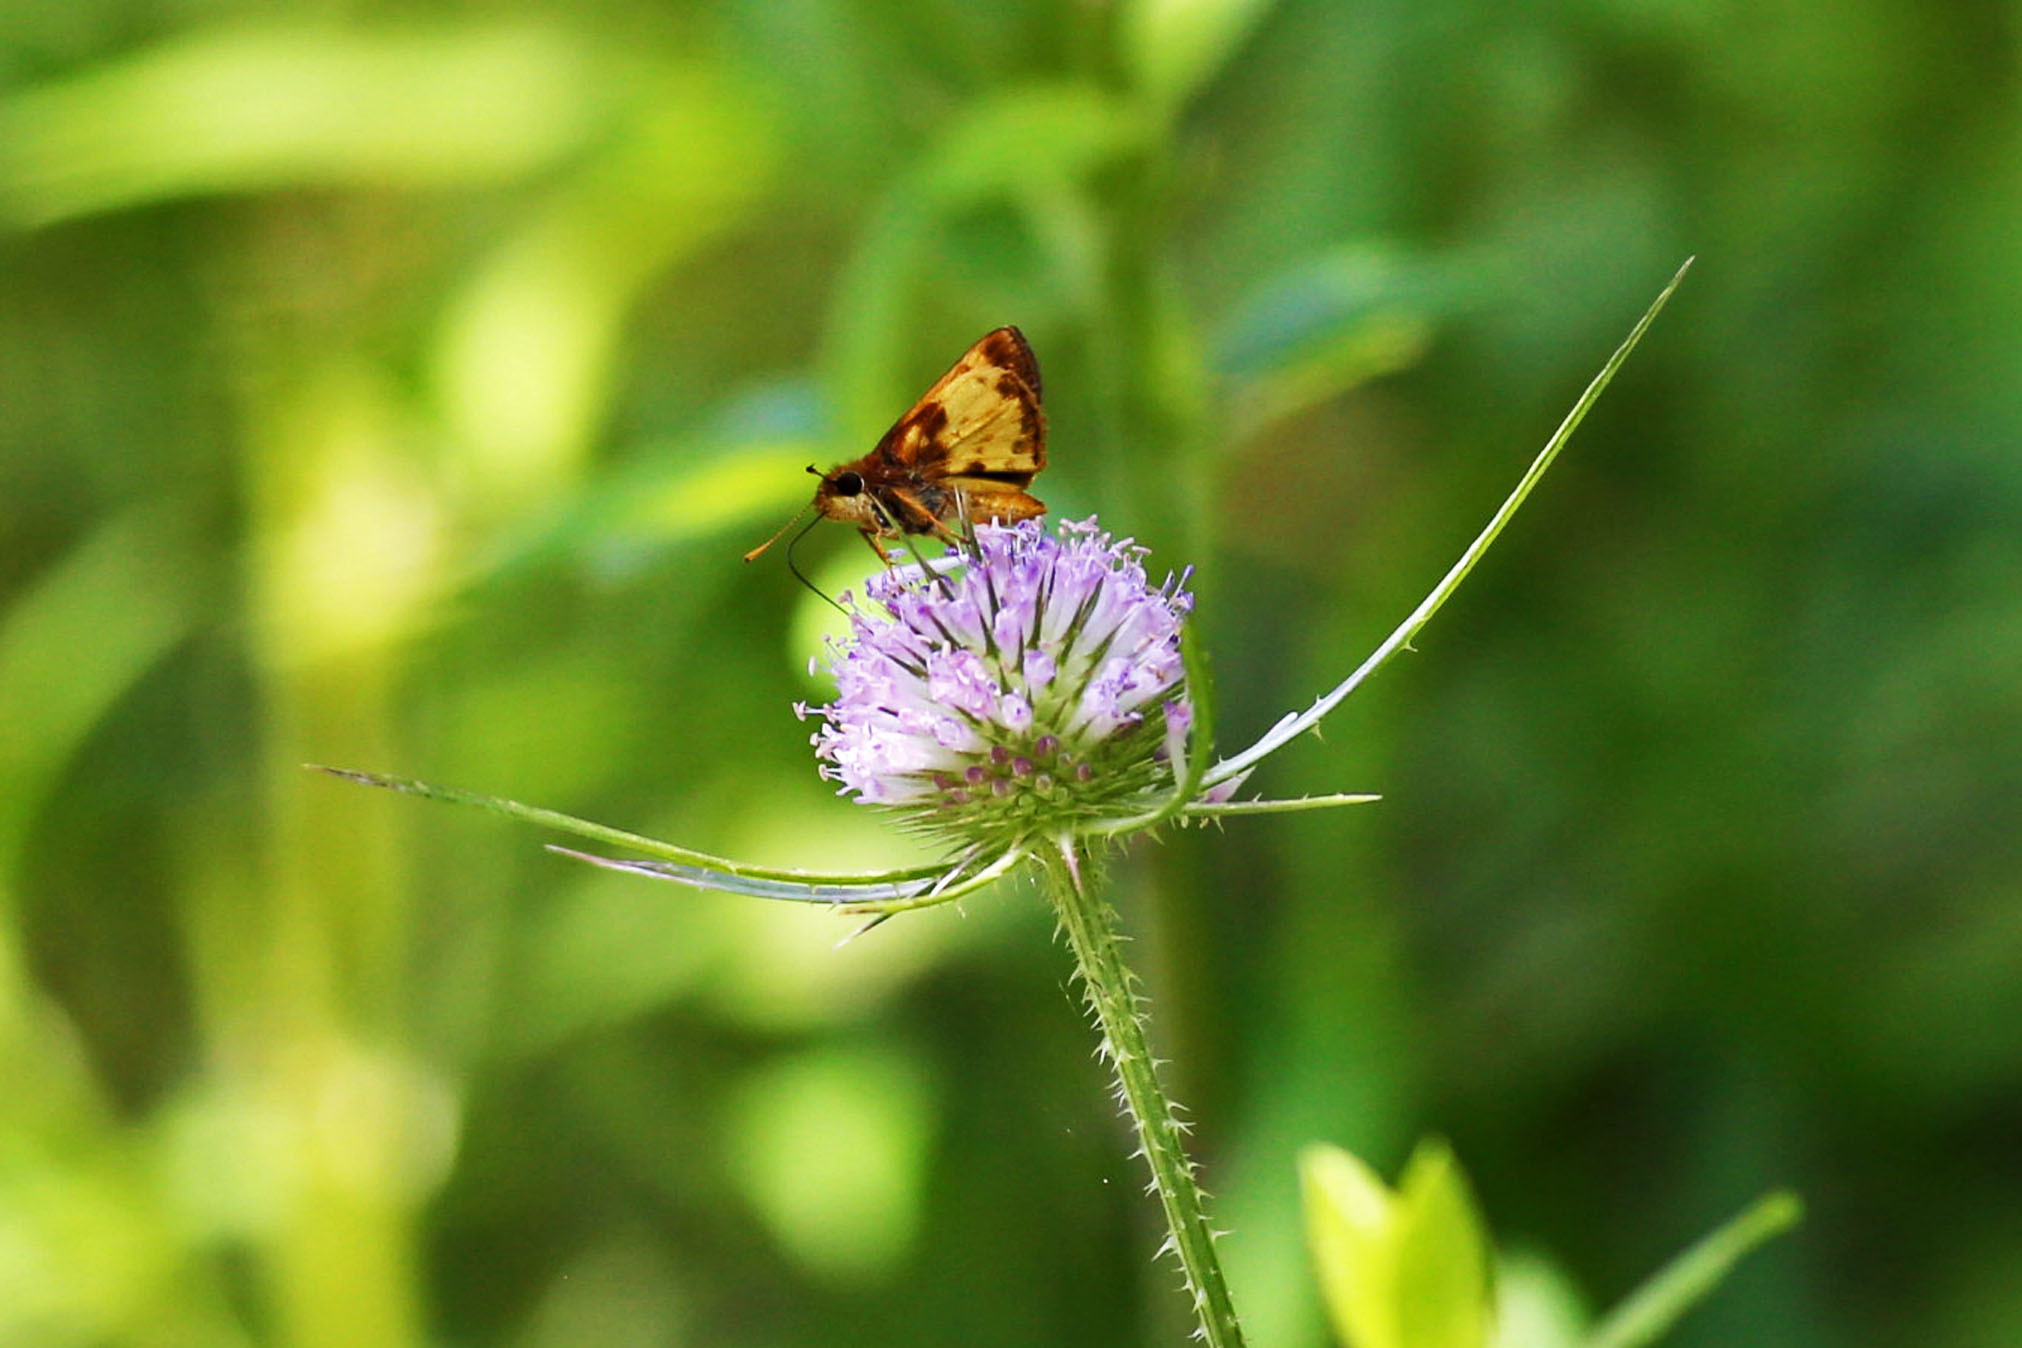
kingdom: Plantae
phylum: Tracheophyta
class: Magnoliopsida
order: Dipsacales
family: Caprifoliaceae
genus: Dipsacus
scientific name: Dipsacus fullonum
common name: Teasel
